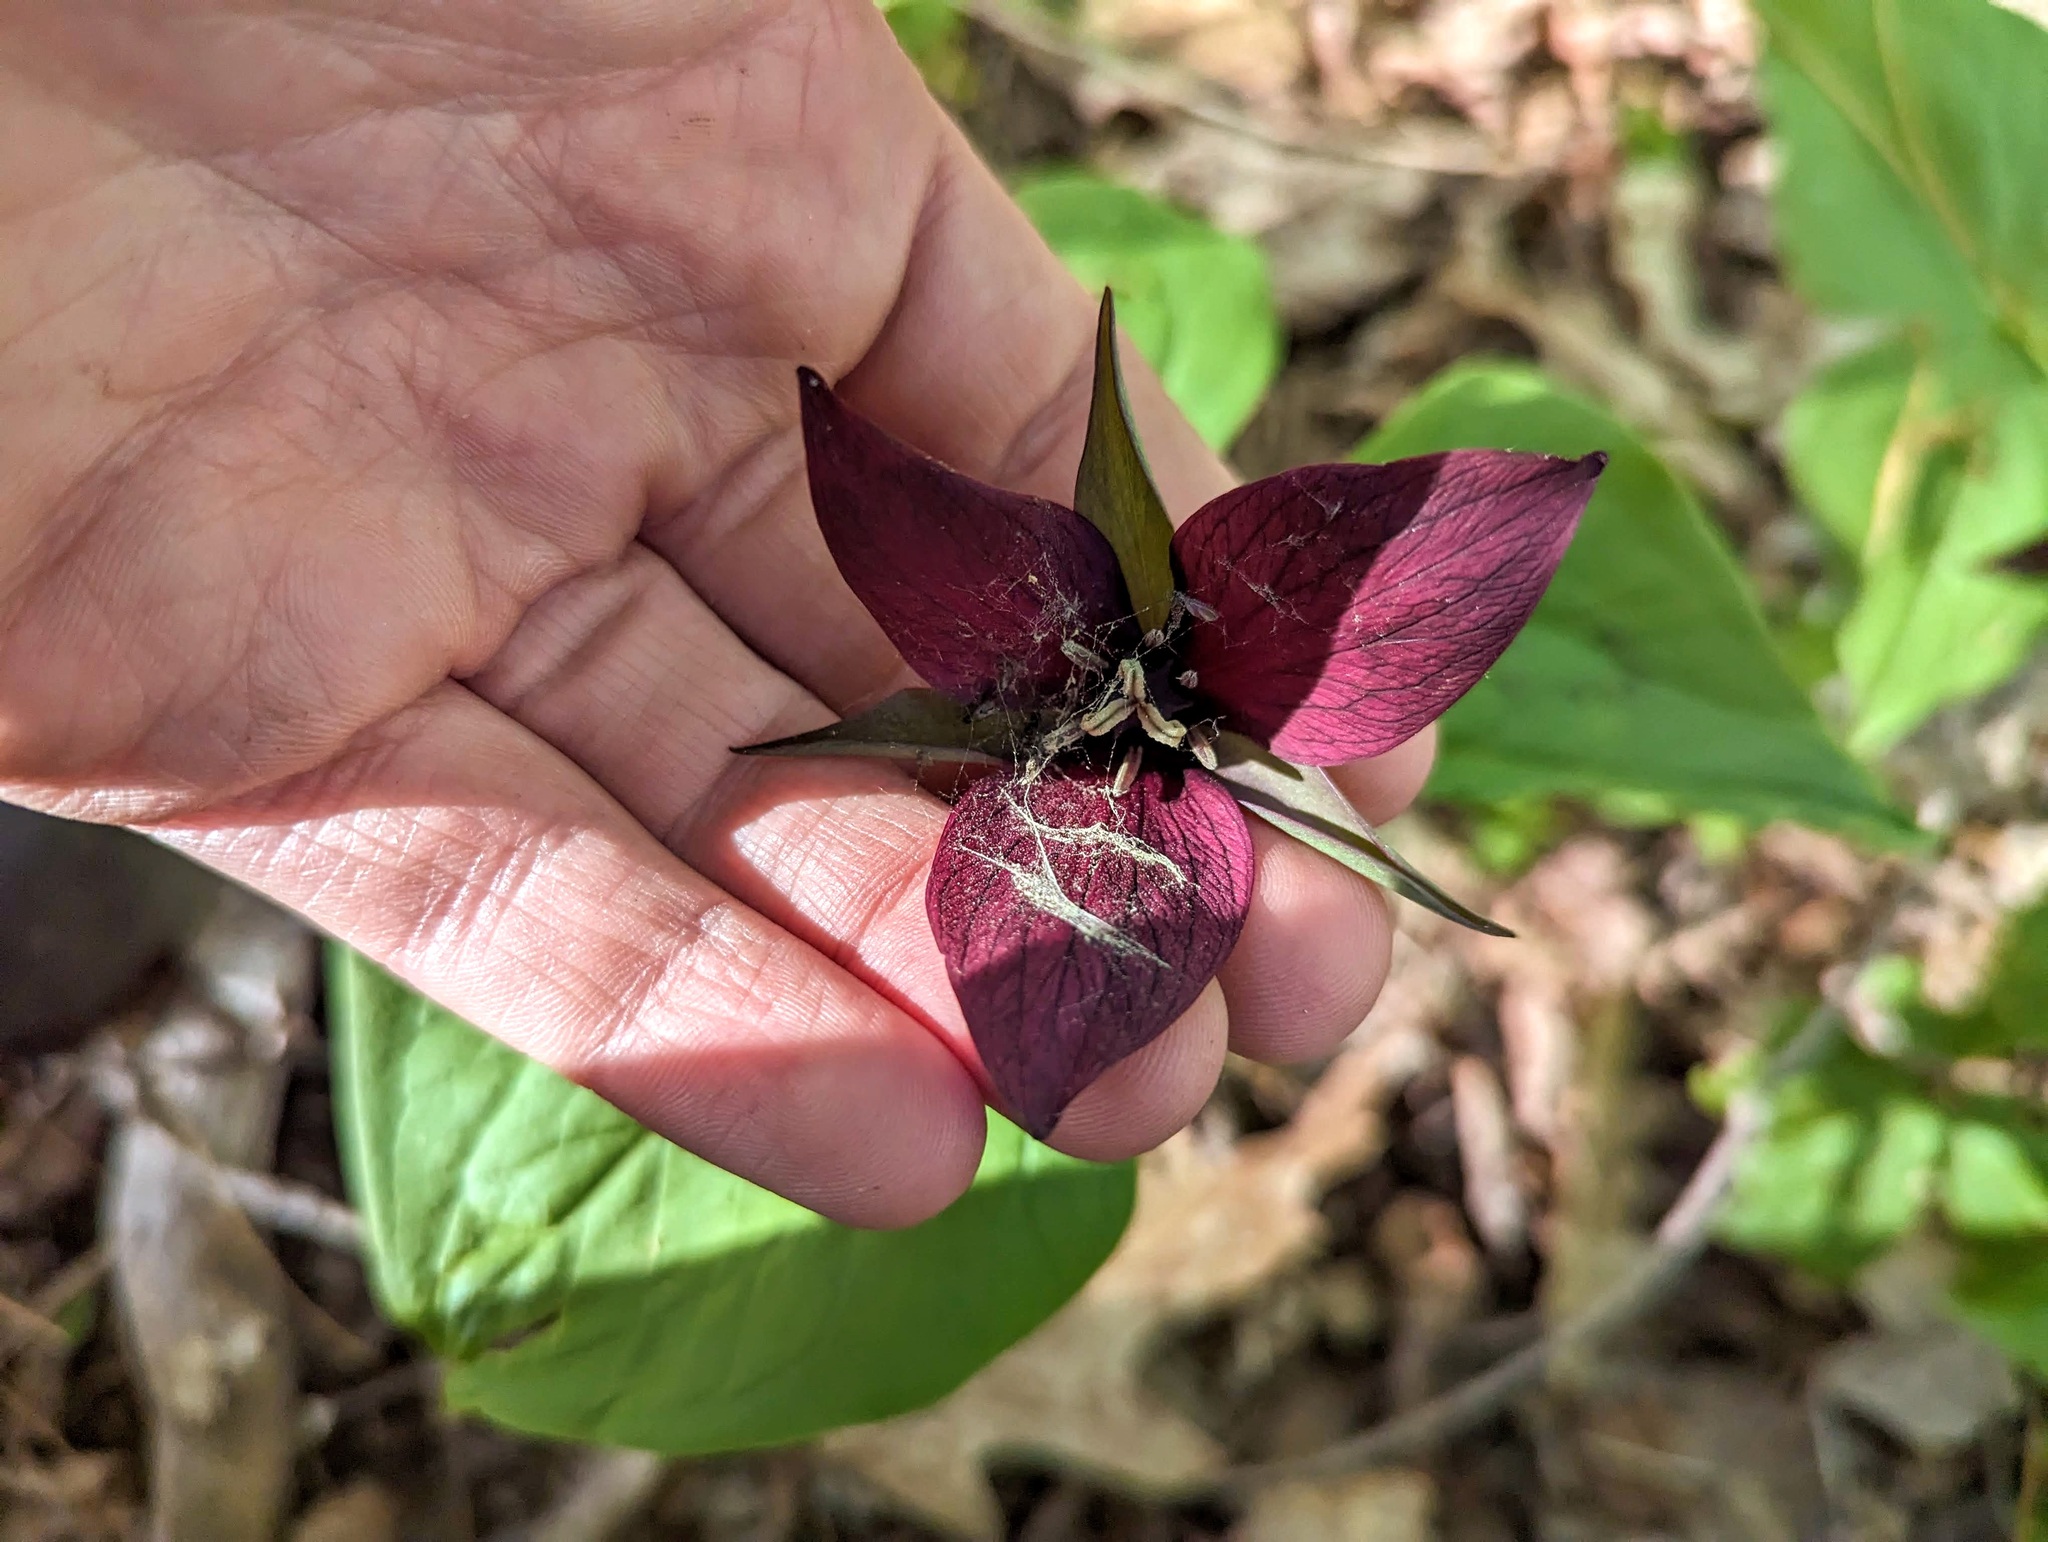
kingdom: Plantae
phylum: Tracheophyta
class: Liliopsida
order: Liliales
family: Melanthiaceae
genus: Trillium
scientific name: Trillium erectum
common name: Purple trillium
